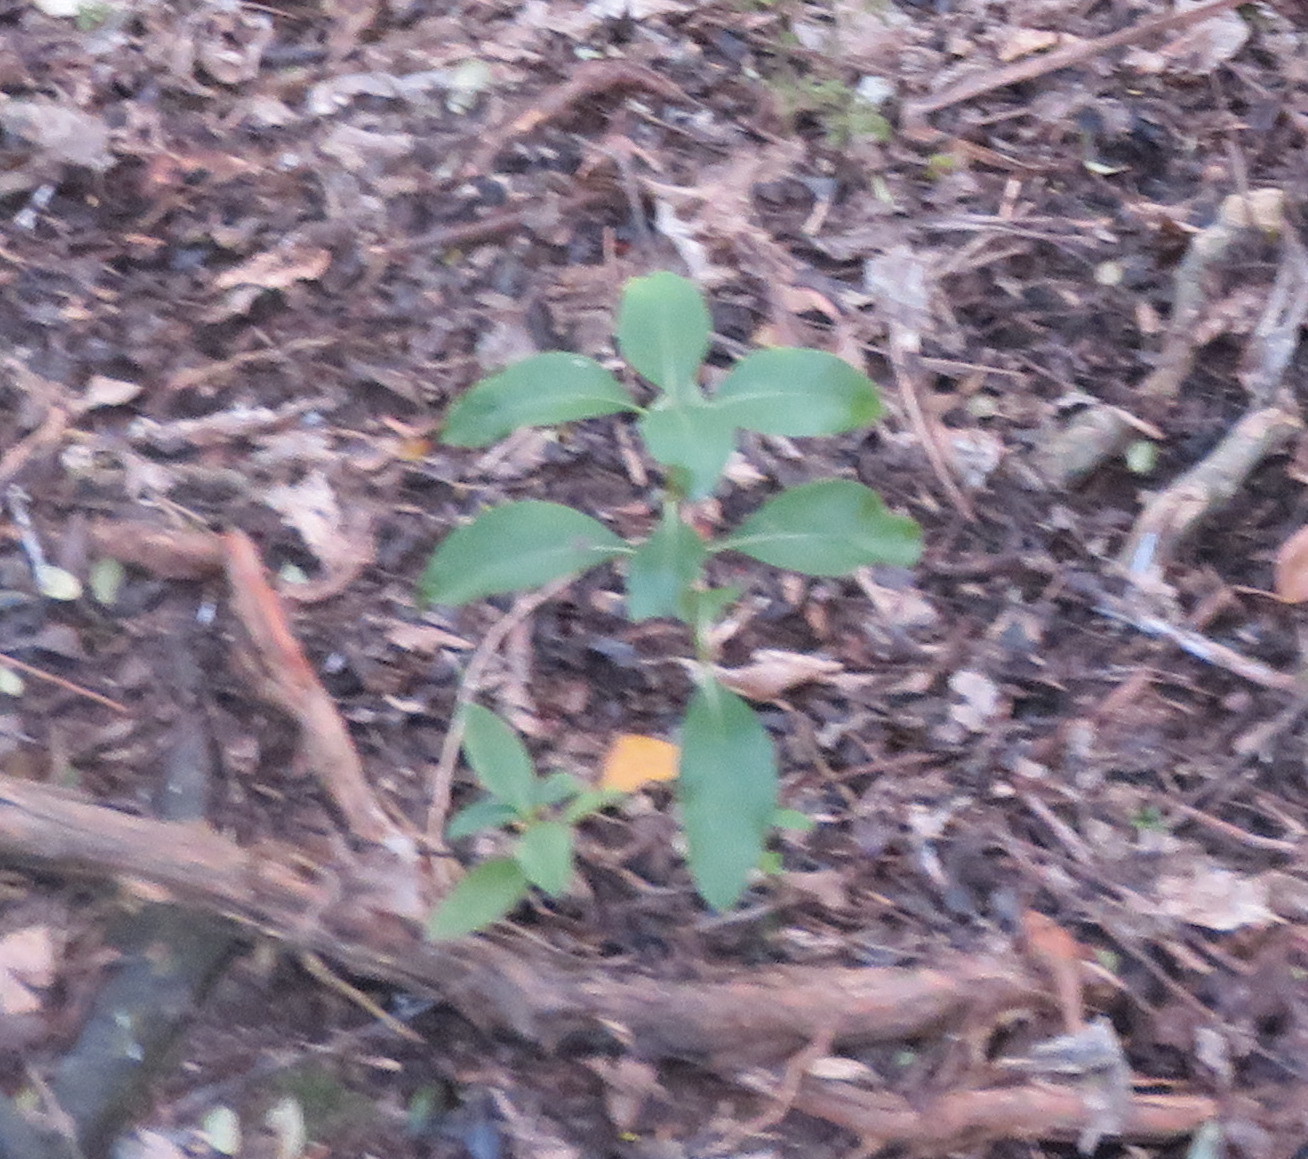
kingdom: Plantae
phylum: Tracheophyta
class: Magnoliopsida
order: Gentianales
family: Rubiaceae
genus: Coprosma
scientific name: Coprosma robusta
